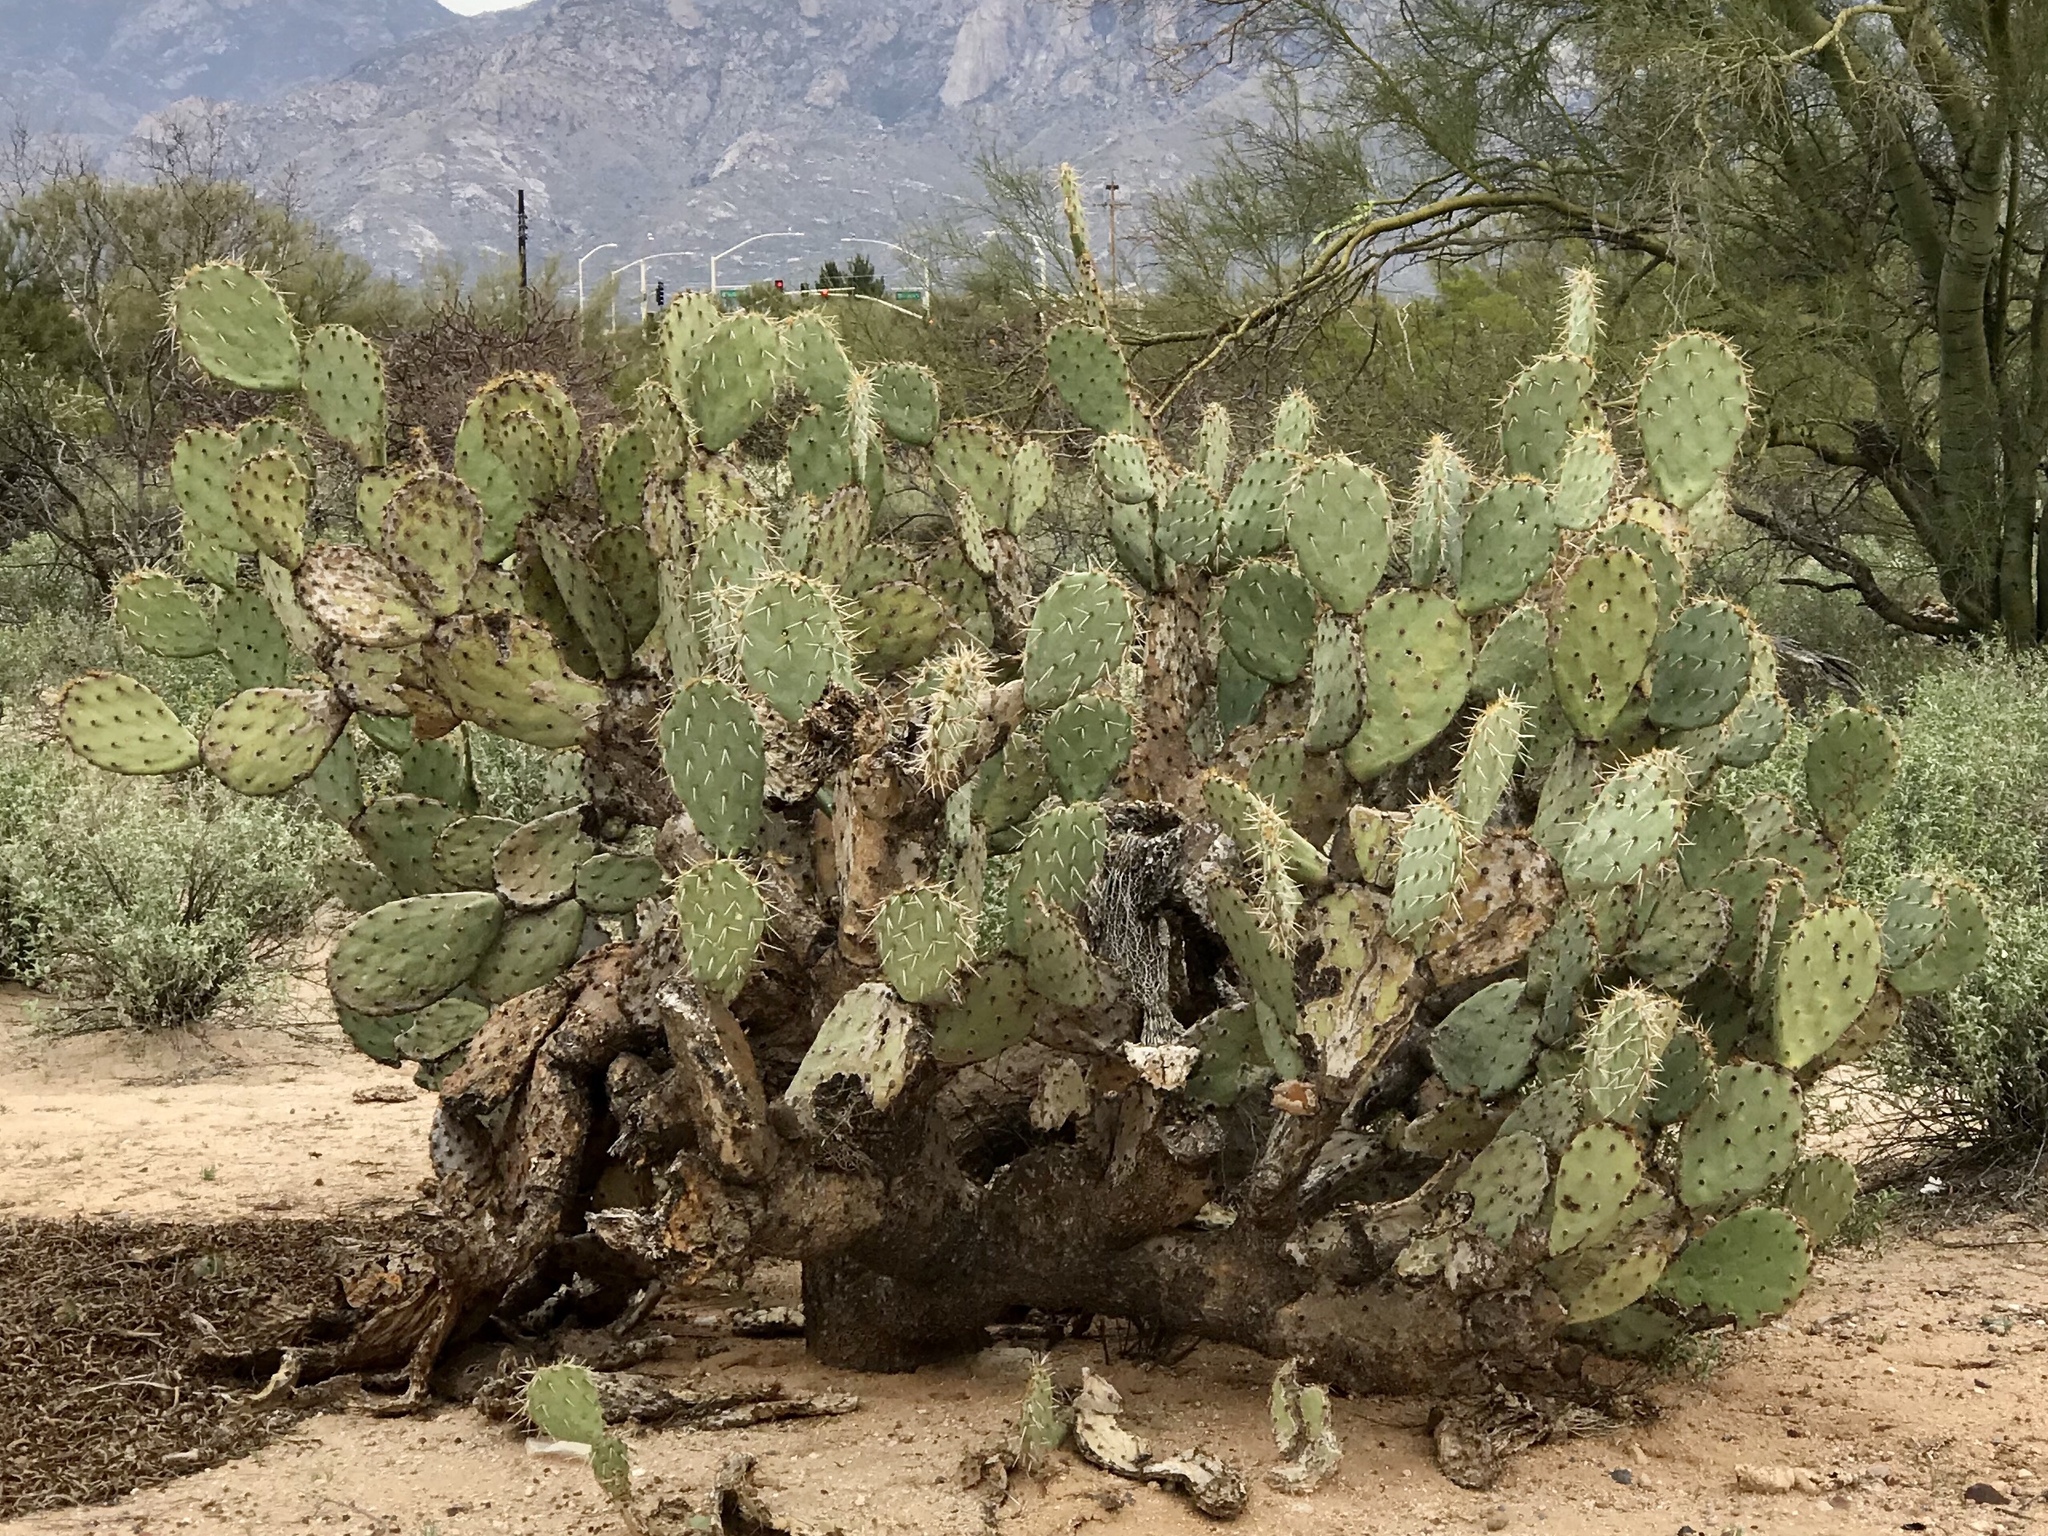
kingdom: Plantae
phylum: Tracheophyta
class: Magnoliopsida
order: Caryophyllales
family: Cactaceae
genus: Opuntia
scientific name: Opuntia engelmannii
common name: Cactus-apple
